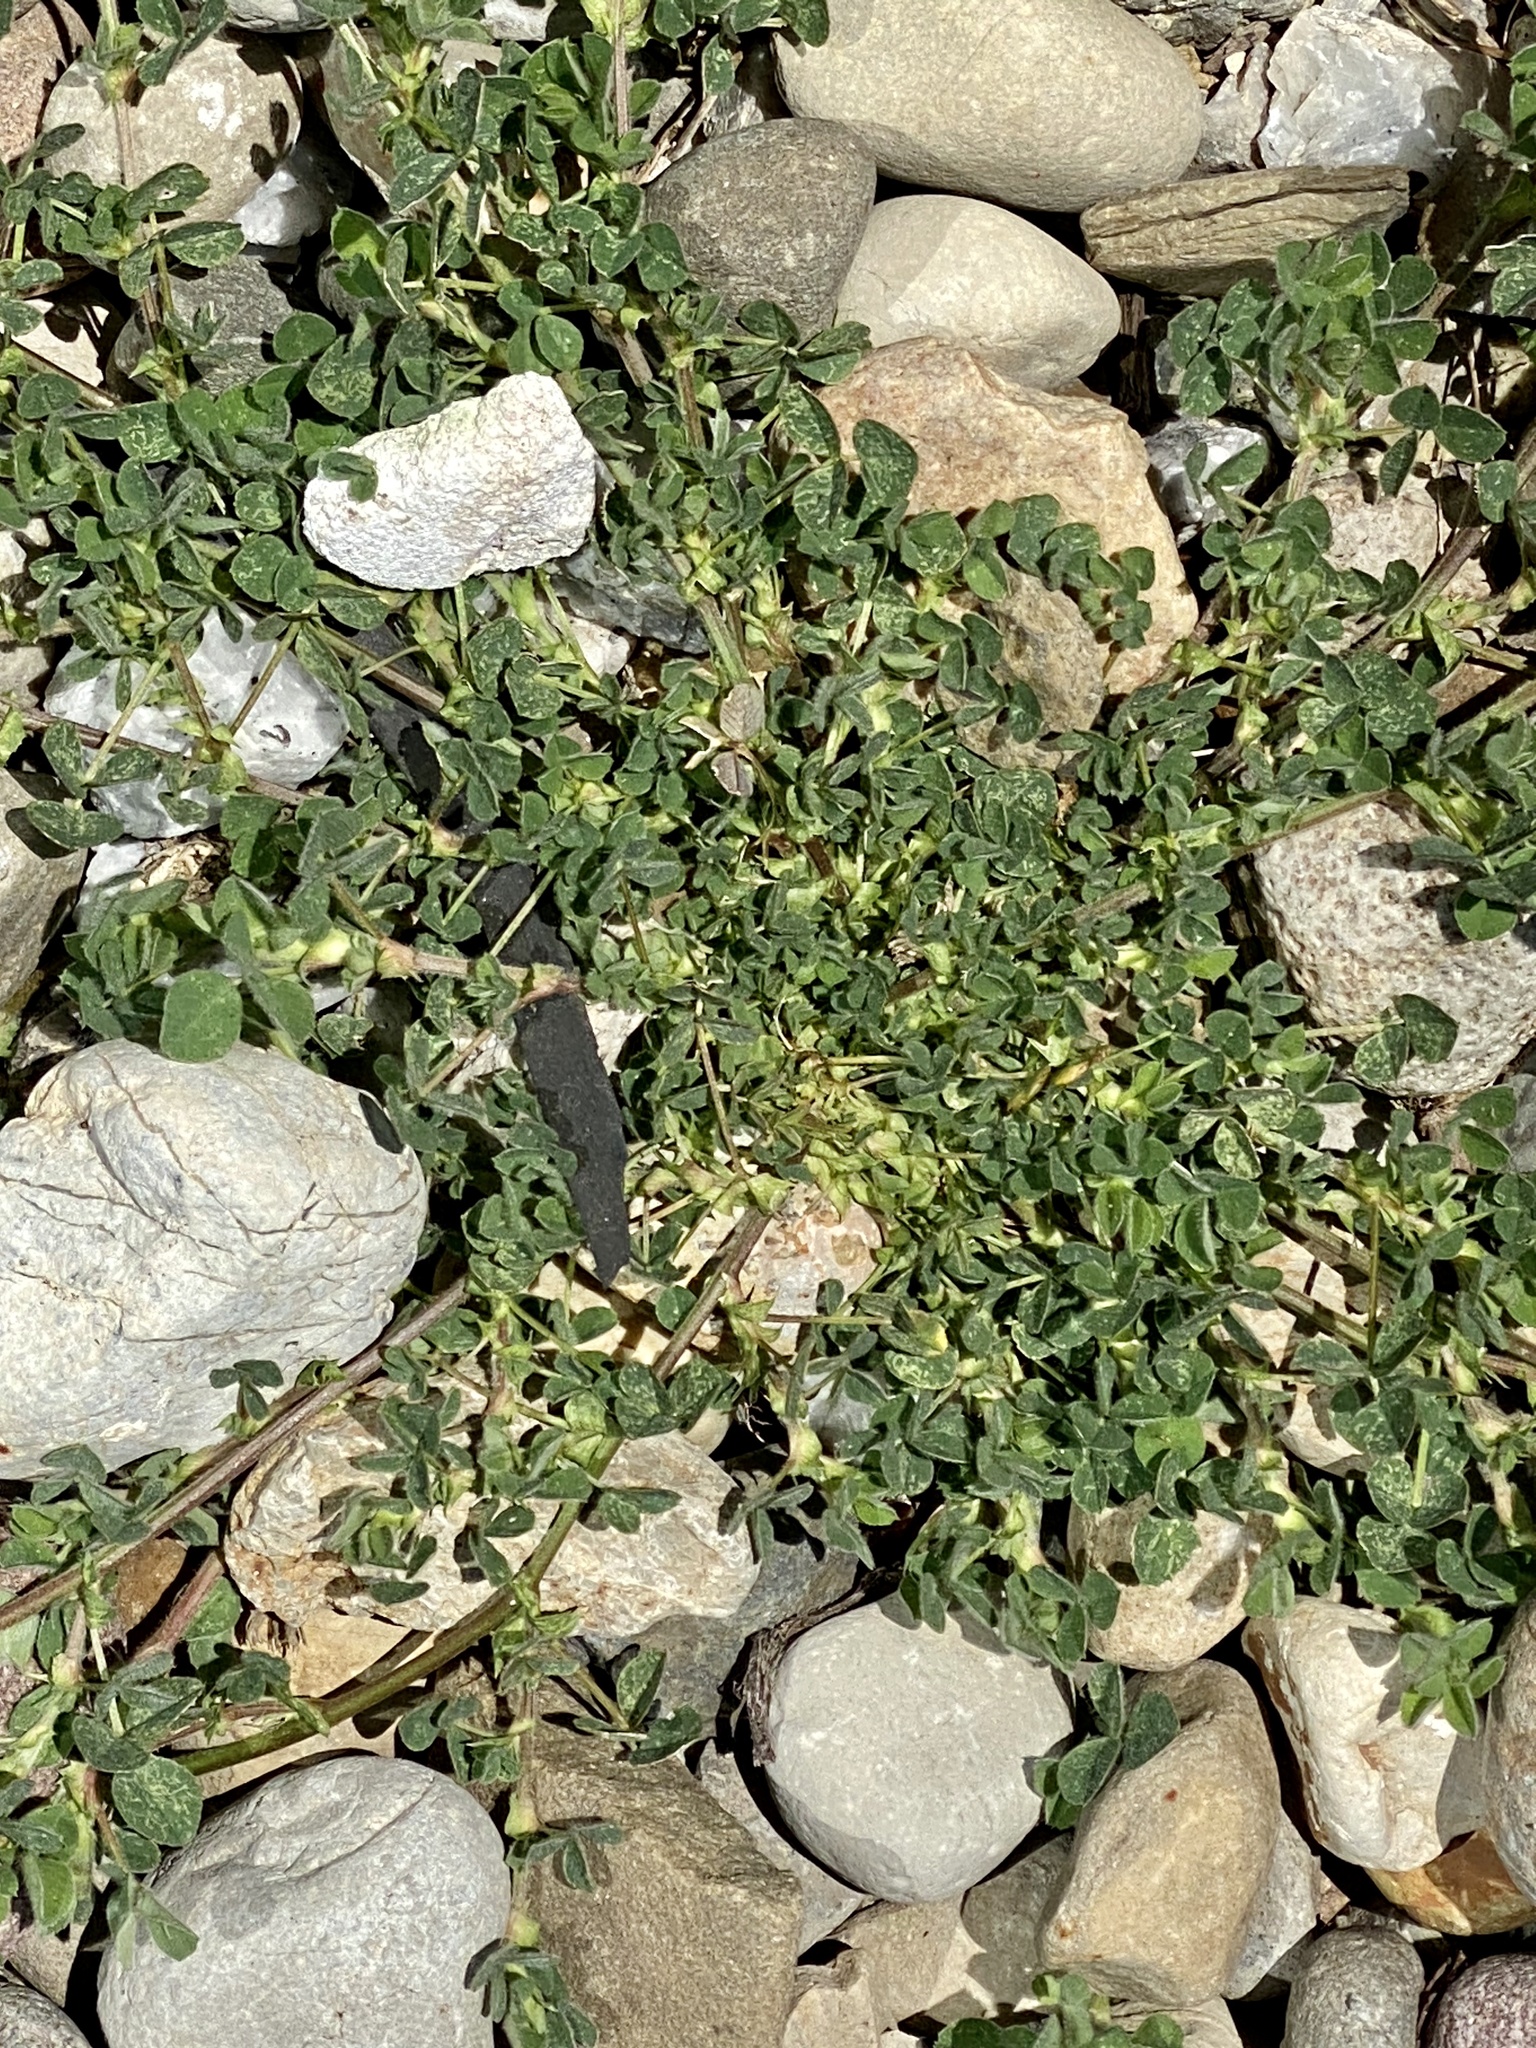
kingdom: Plantae
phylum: Tracheophyta
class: Magnoliopsida
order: Fabales
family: Fabaceae
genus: Medicago
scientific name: Medicago lupulina
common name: Black medick
